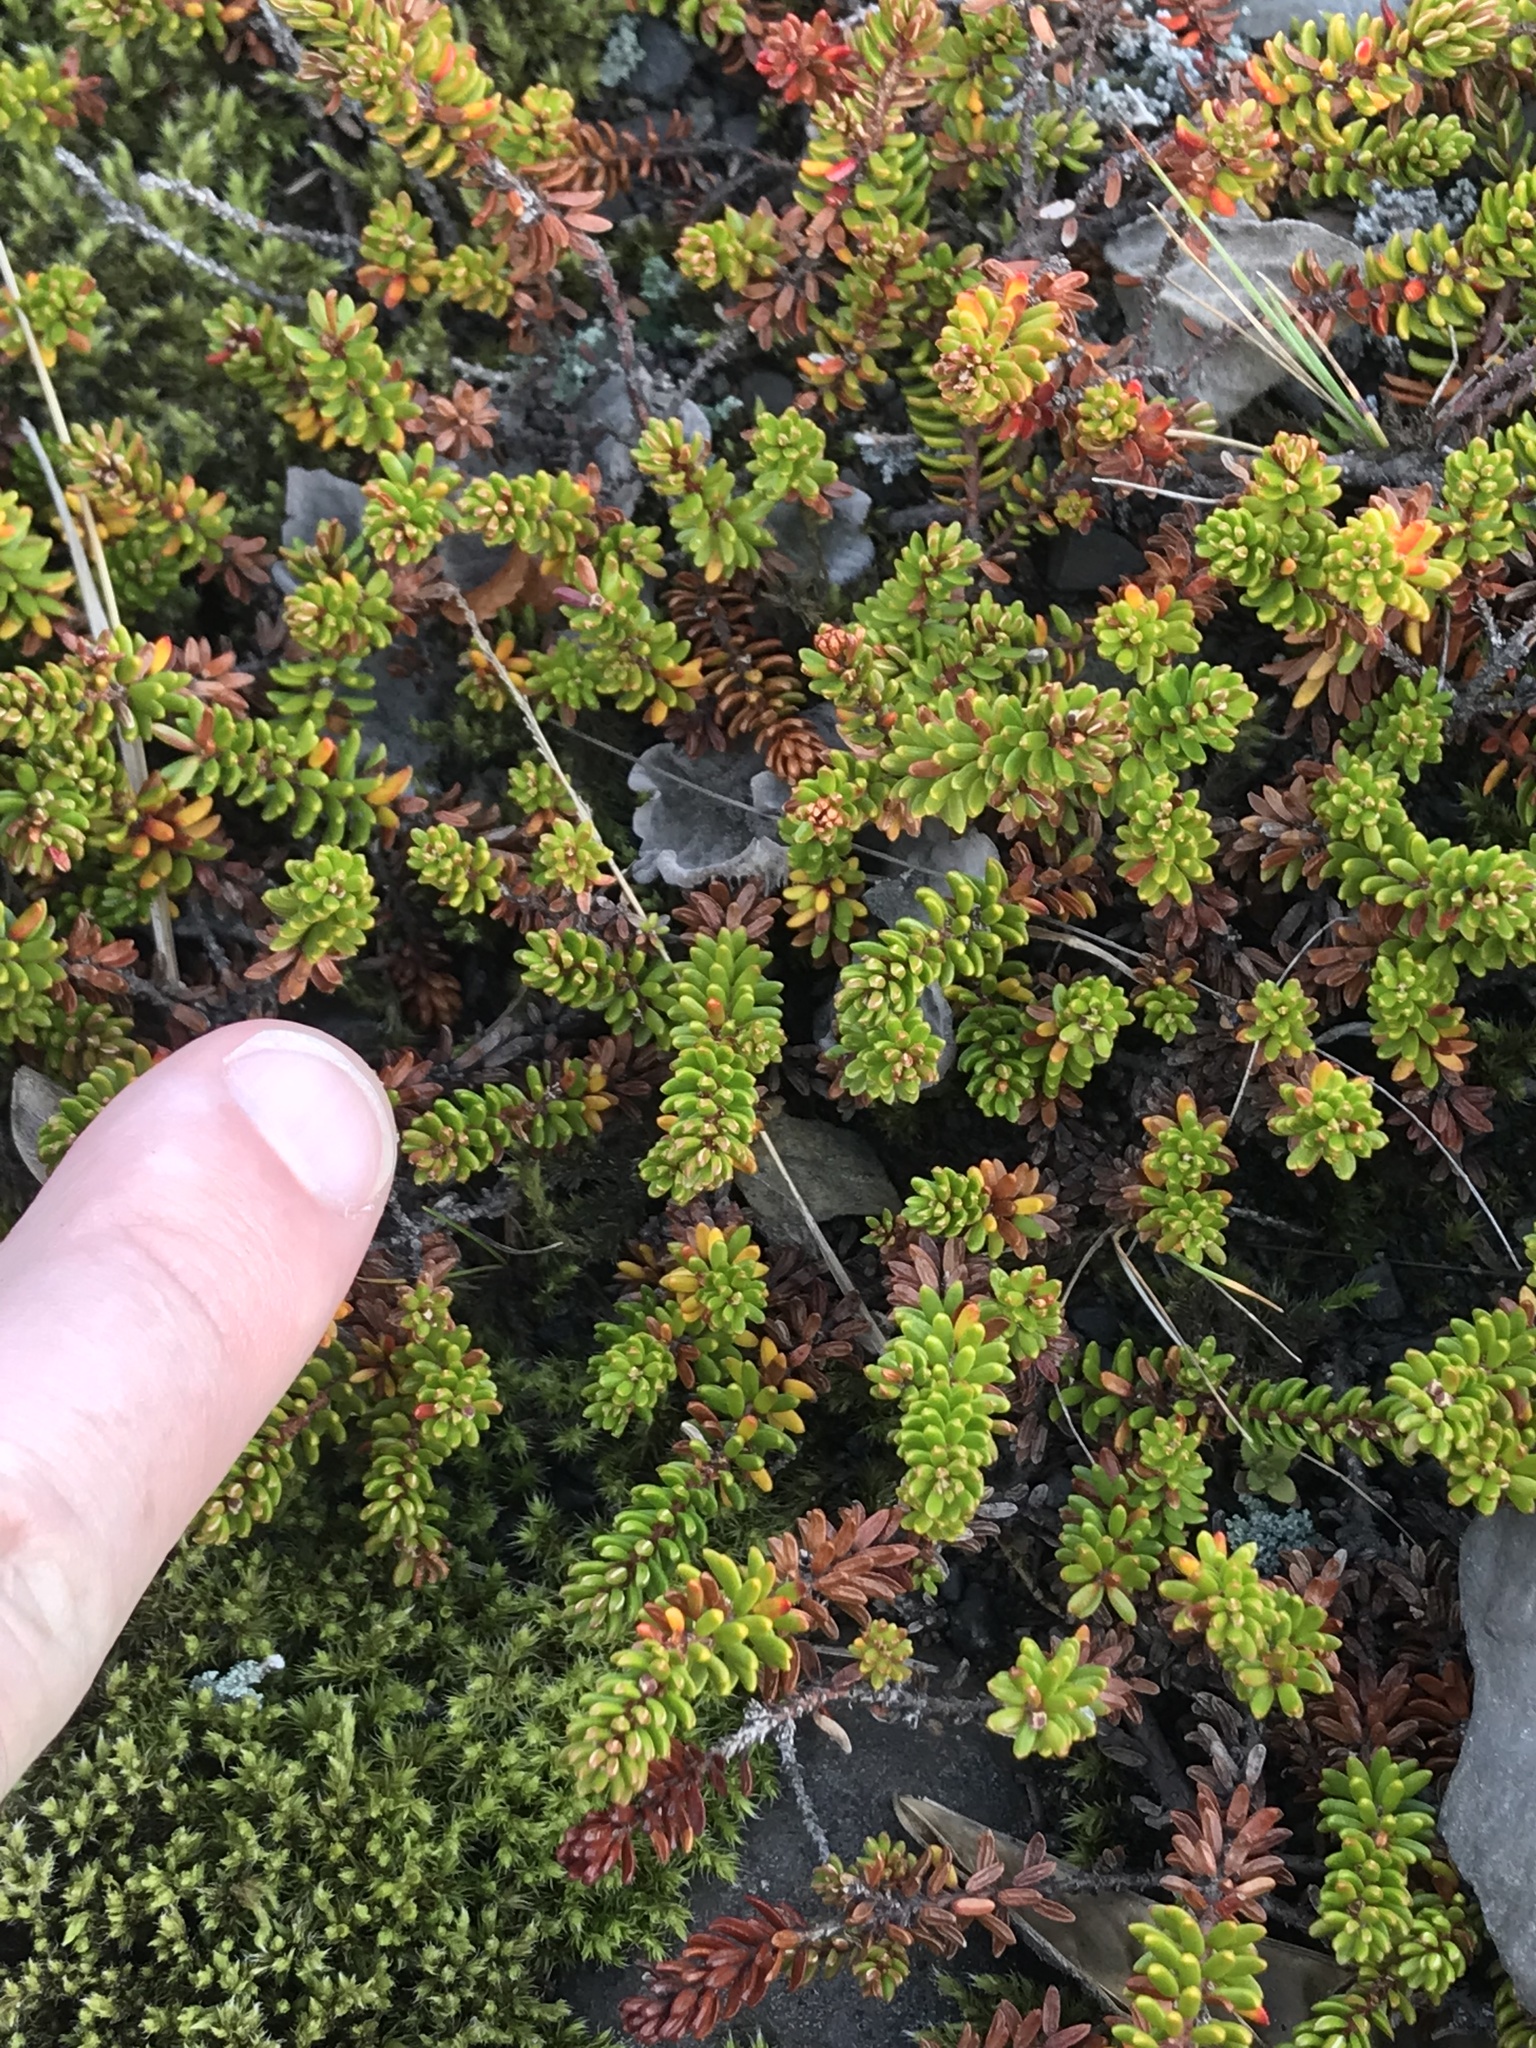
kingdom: Plantae
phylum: Tracheophyta
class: Magnoliopsida
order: Ericales
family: Ericaceae
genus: Empetrum
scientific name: Empetrum nigrum
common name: Black crowberry
